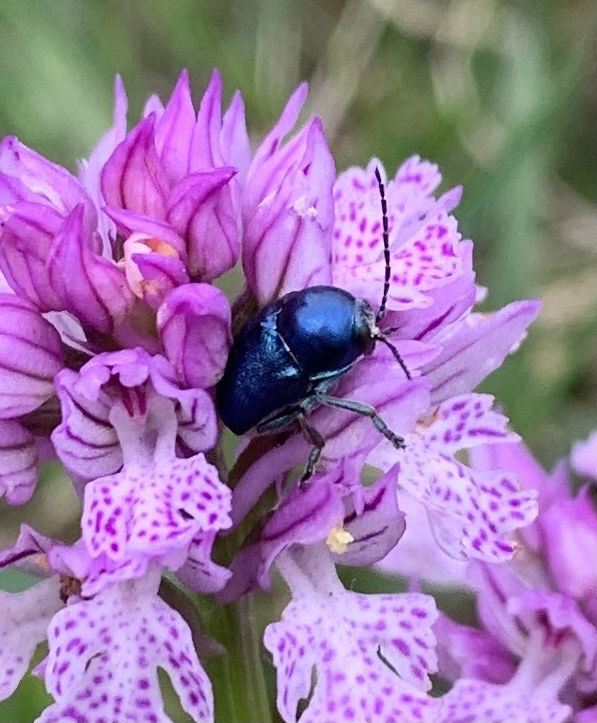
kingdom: Animalia
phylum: Arthropoda
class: Insecta
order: Coleoptera
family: Chrysomelidae
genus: Cryptocephalus
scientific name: Cryptocephalus
